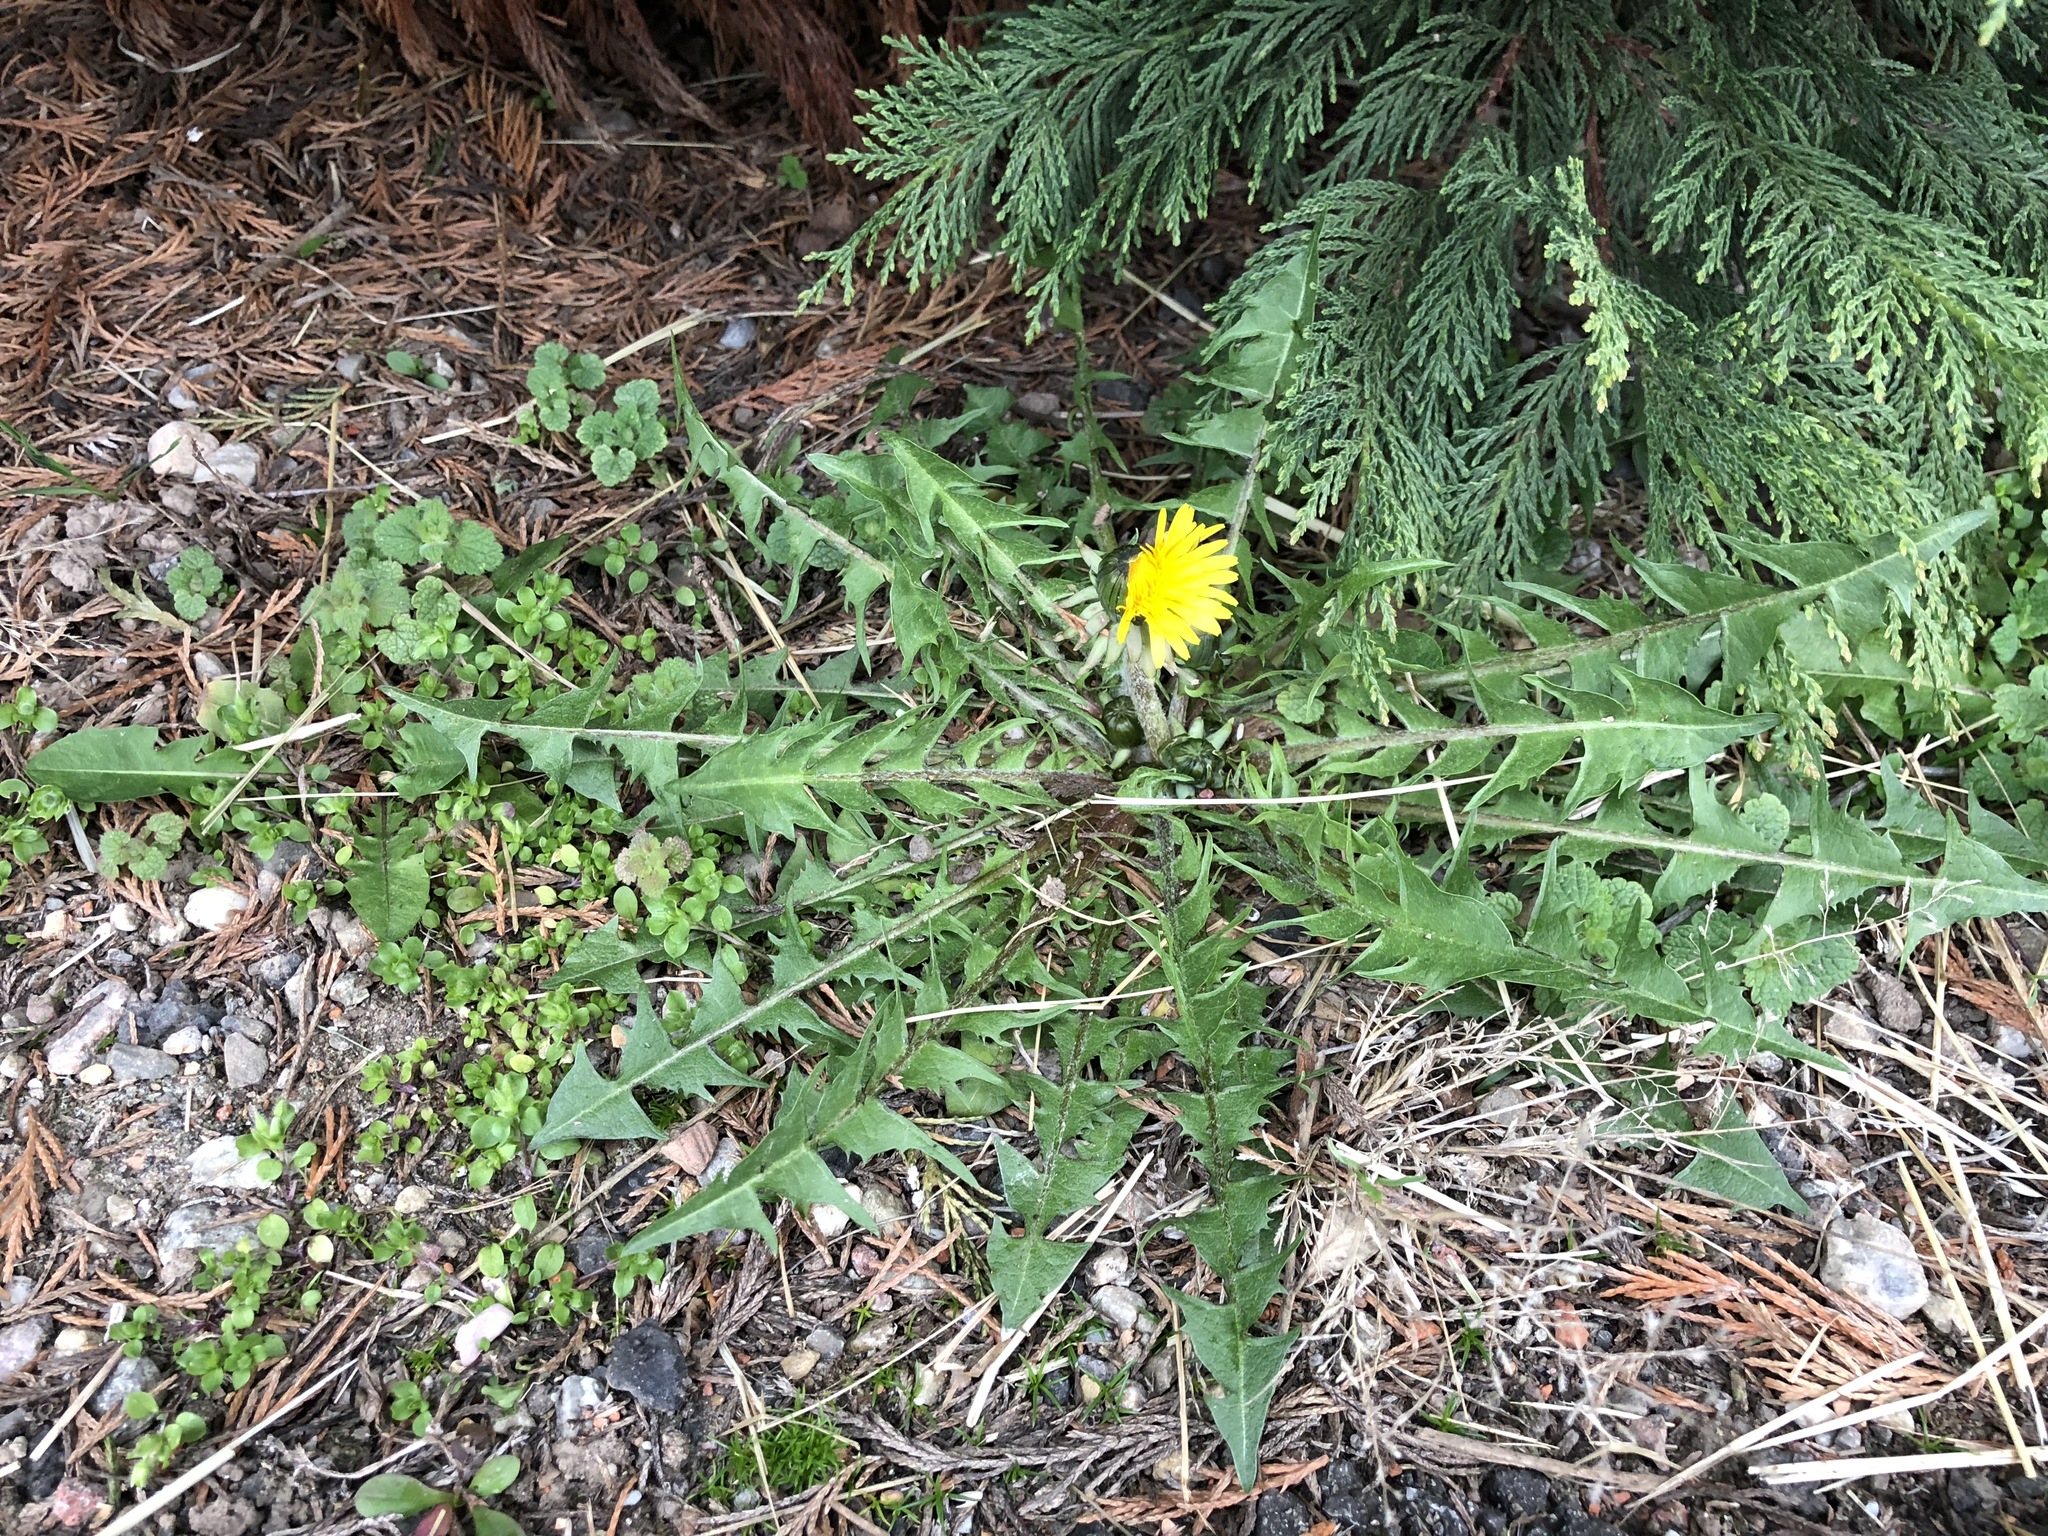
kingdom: Plantae
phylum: Tracheophyta
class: Magnoliopsida
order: Asterales
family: Asteraceae
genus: Taraxacum
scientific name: Taraxacum officinale
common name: Common dandelion
